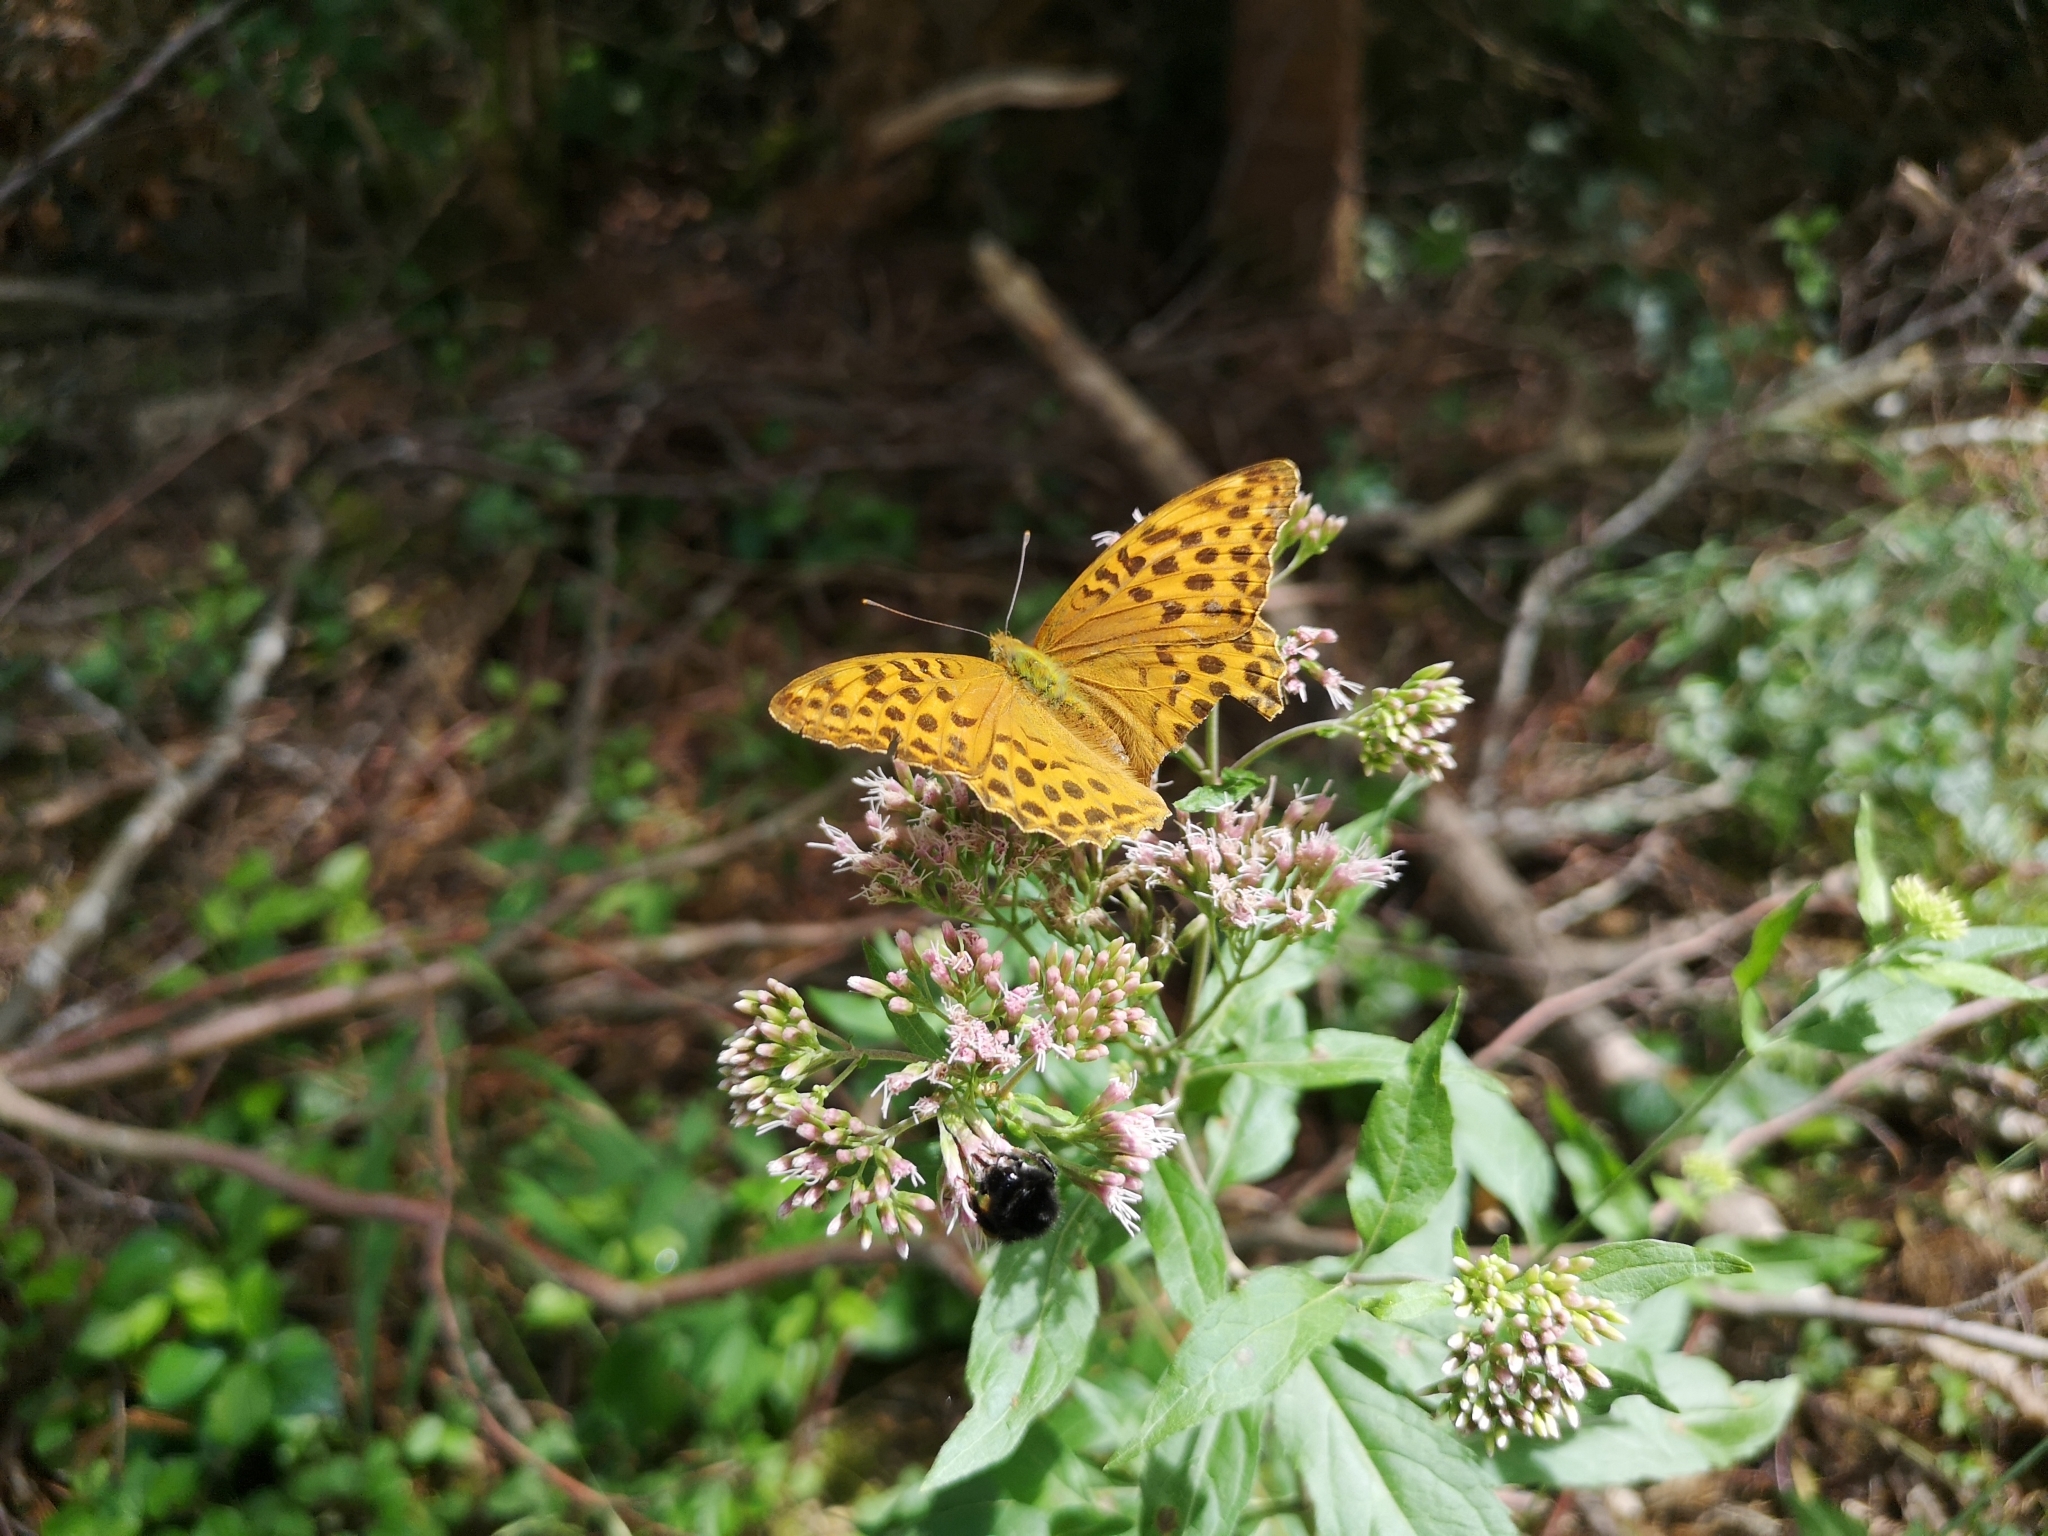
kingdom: Animalia
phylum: Arthropoda
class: Insecta
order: Lepidoptera
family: Nymphalidae
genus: Argynnis
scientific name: Argynnis paphia
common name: Silver-washed fritillary
